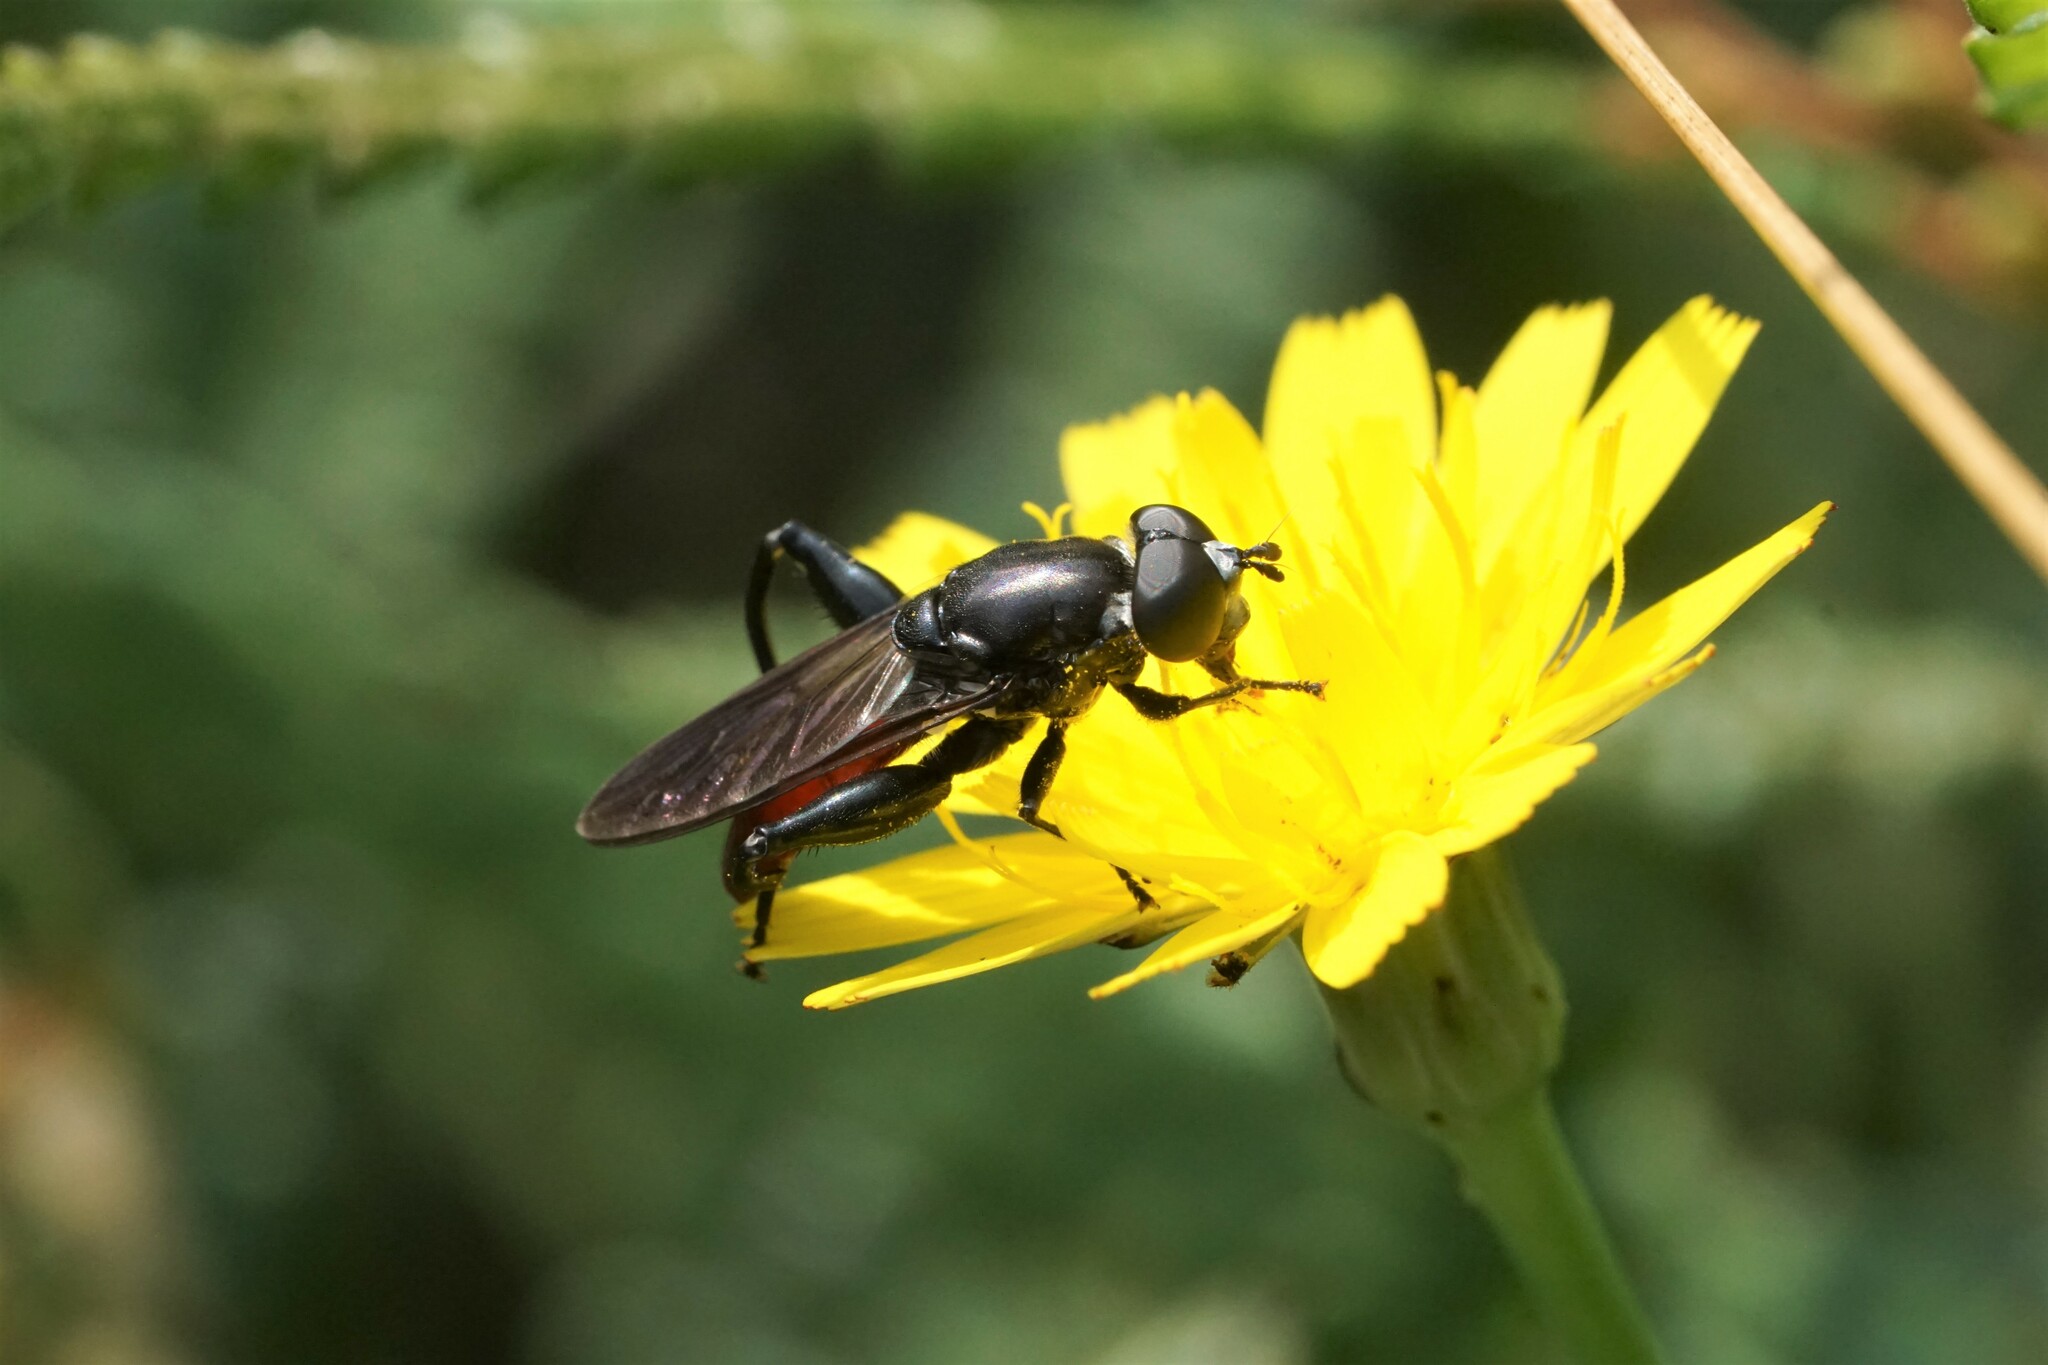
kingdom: Animalia
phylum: Arthropoda
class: Insecta
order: Diptera
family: Syrphidae
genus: Chalcosyrphus
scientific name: Chalcosyrphus piger
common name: Short-haired leafwalker
